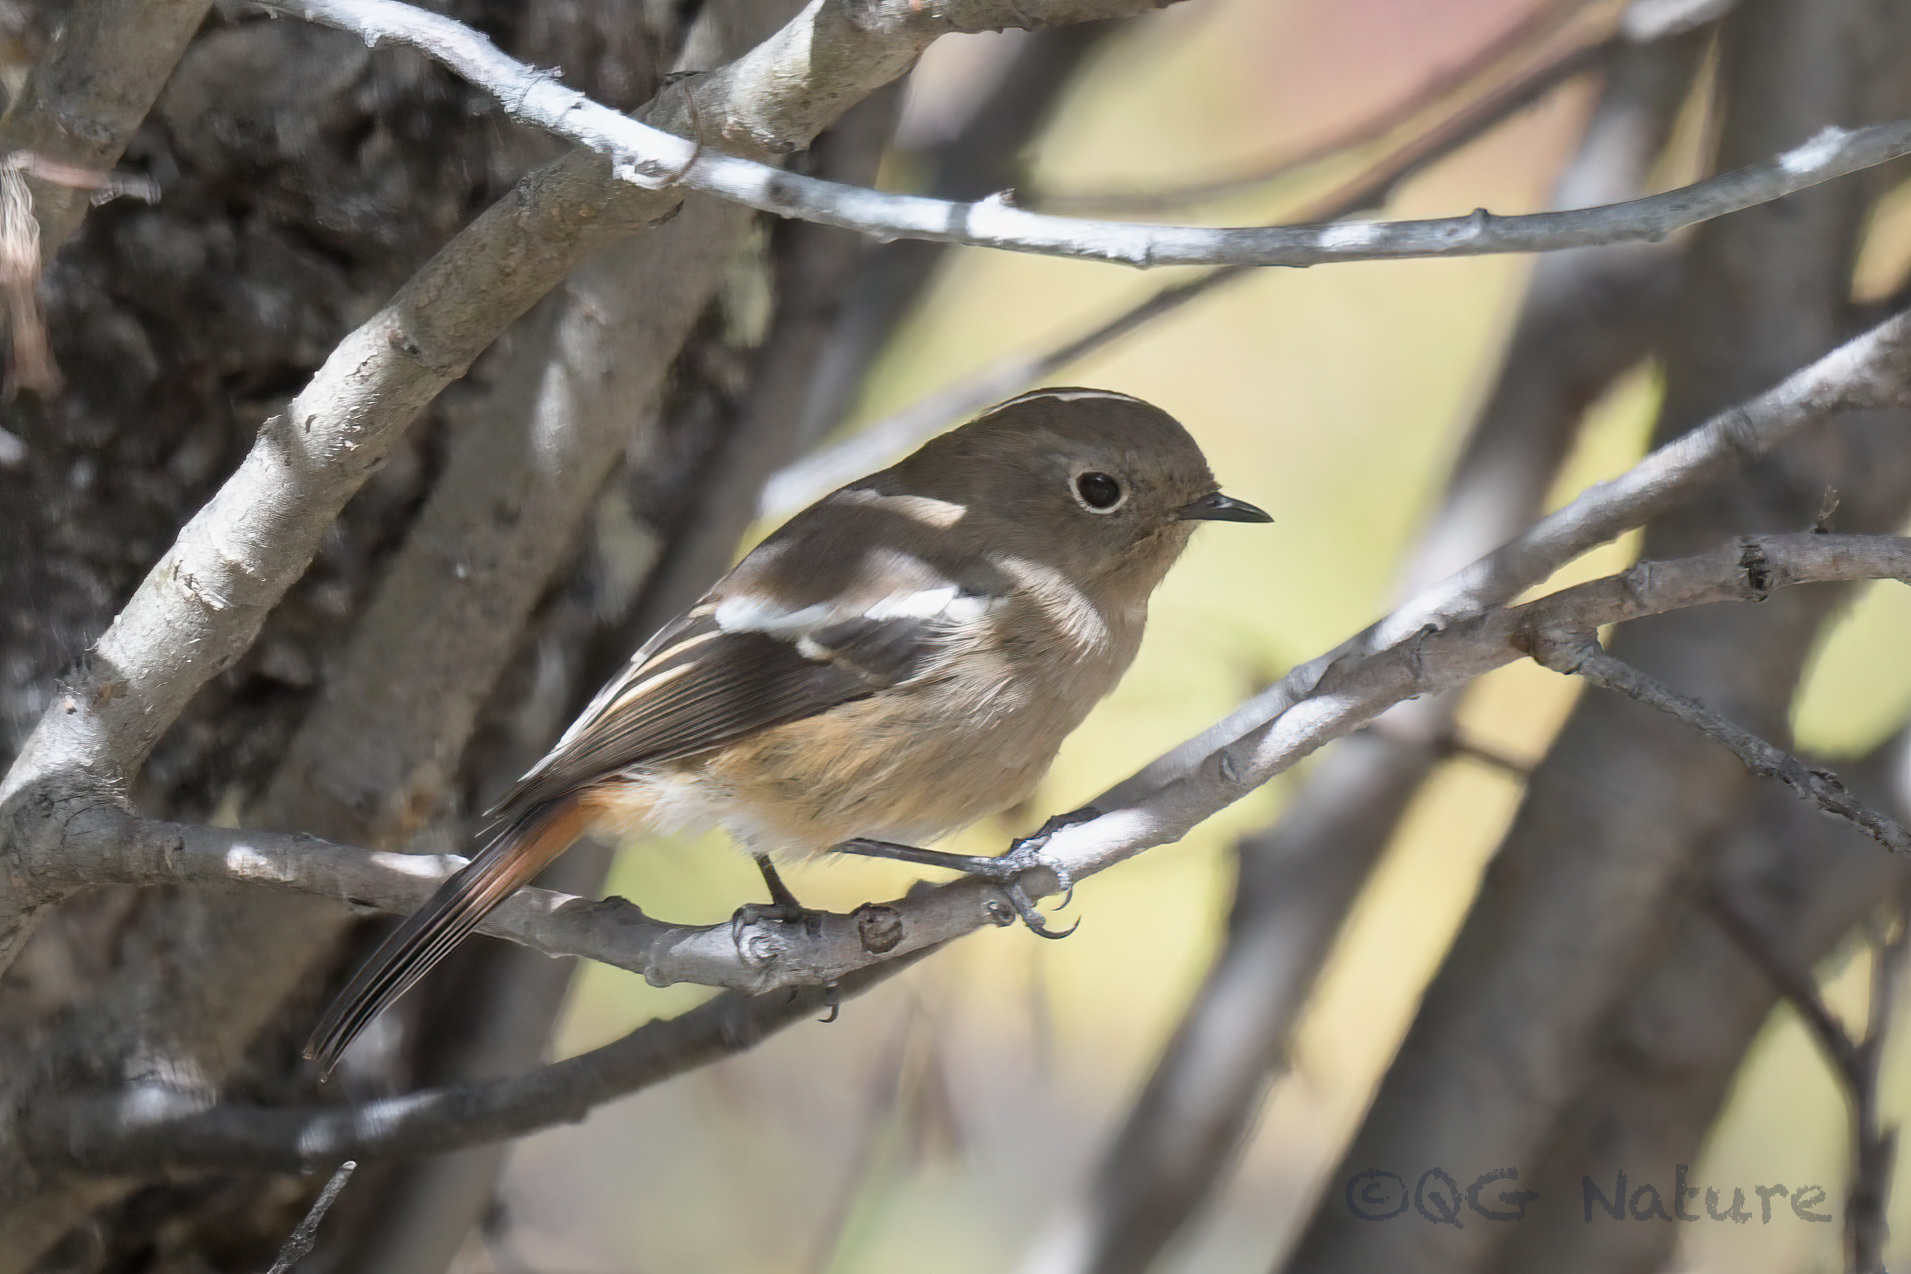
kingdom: Animalia
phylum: Chordata
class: Aves
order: Passeriformes
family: Muscicapidae
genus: Phoenicurus
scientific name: Phoenicurus schisticeps
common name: White-throated redstart
